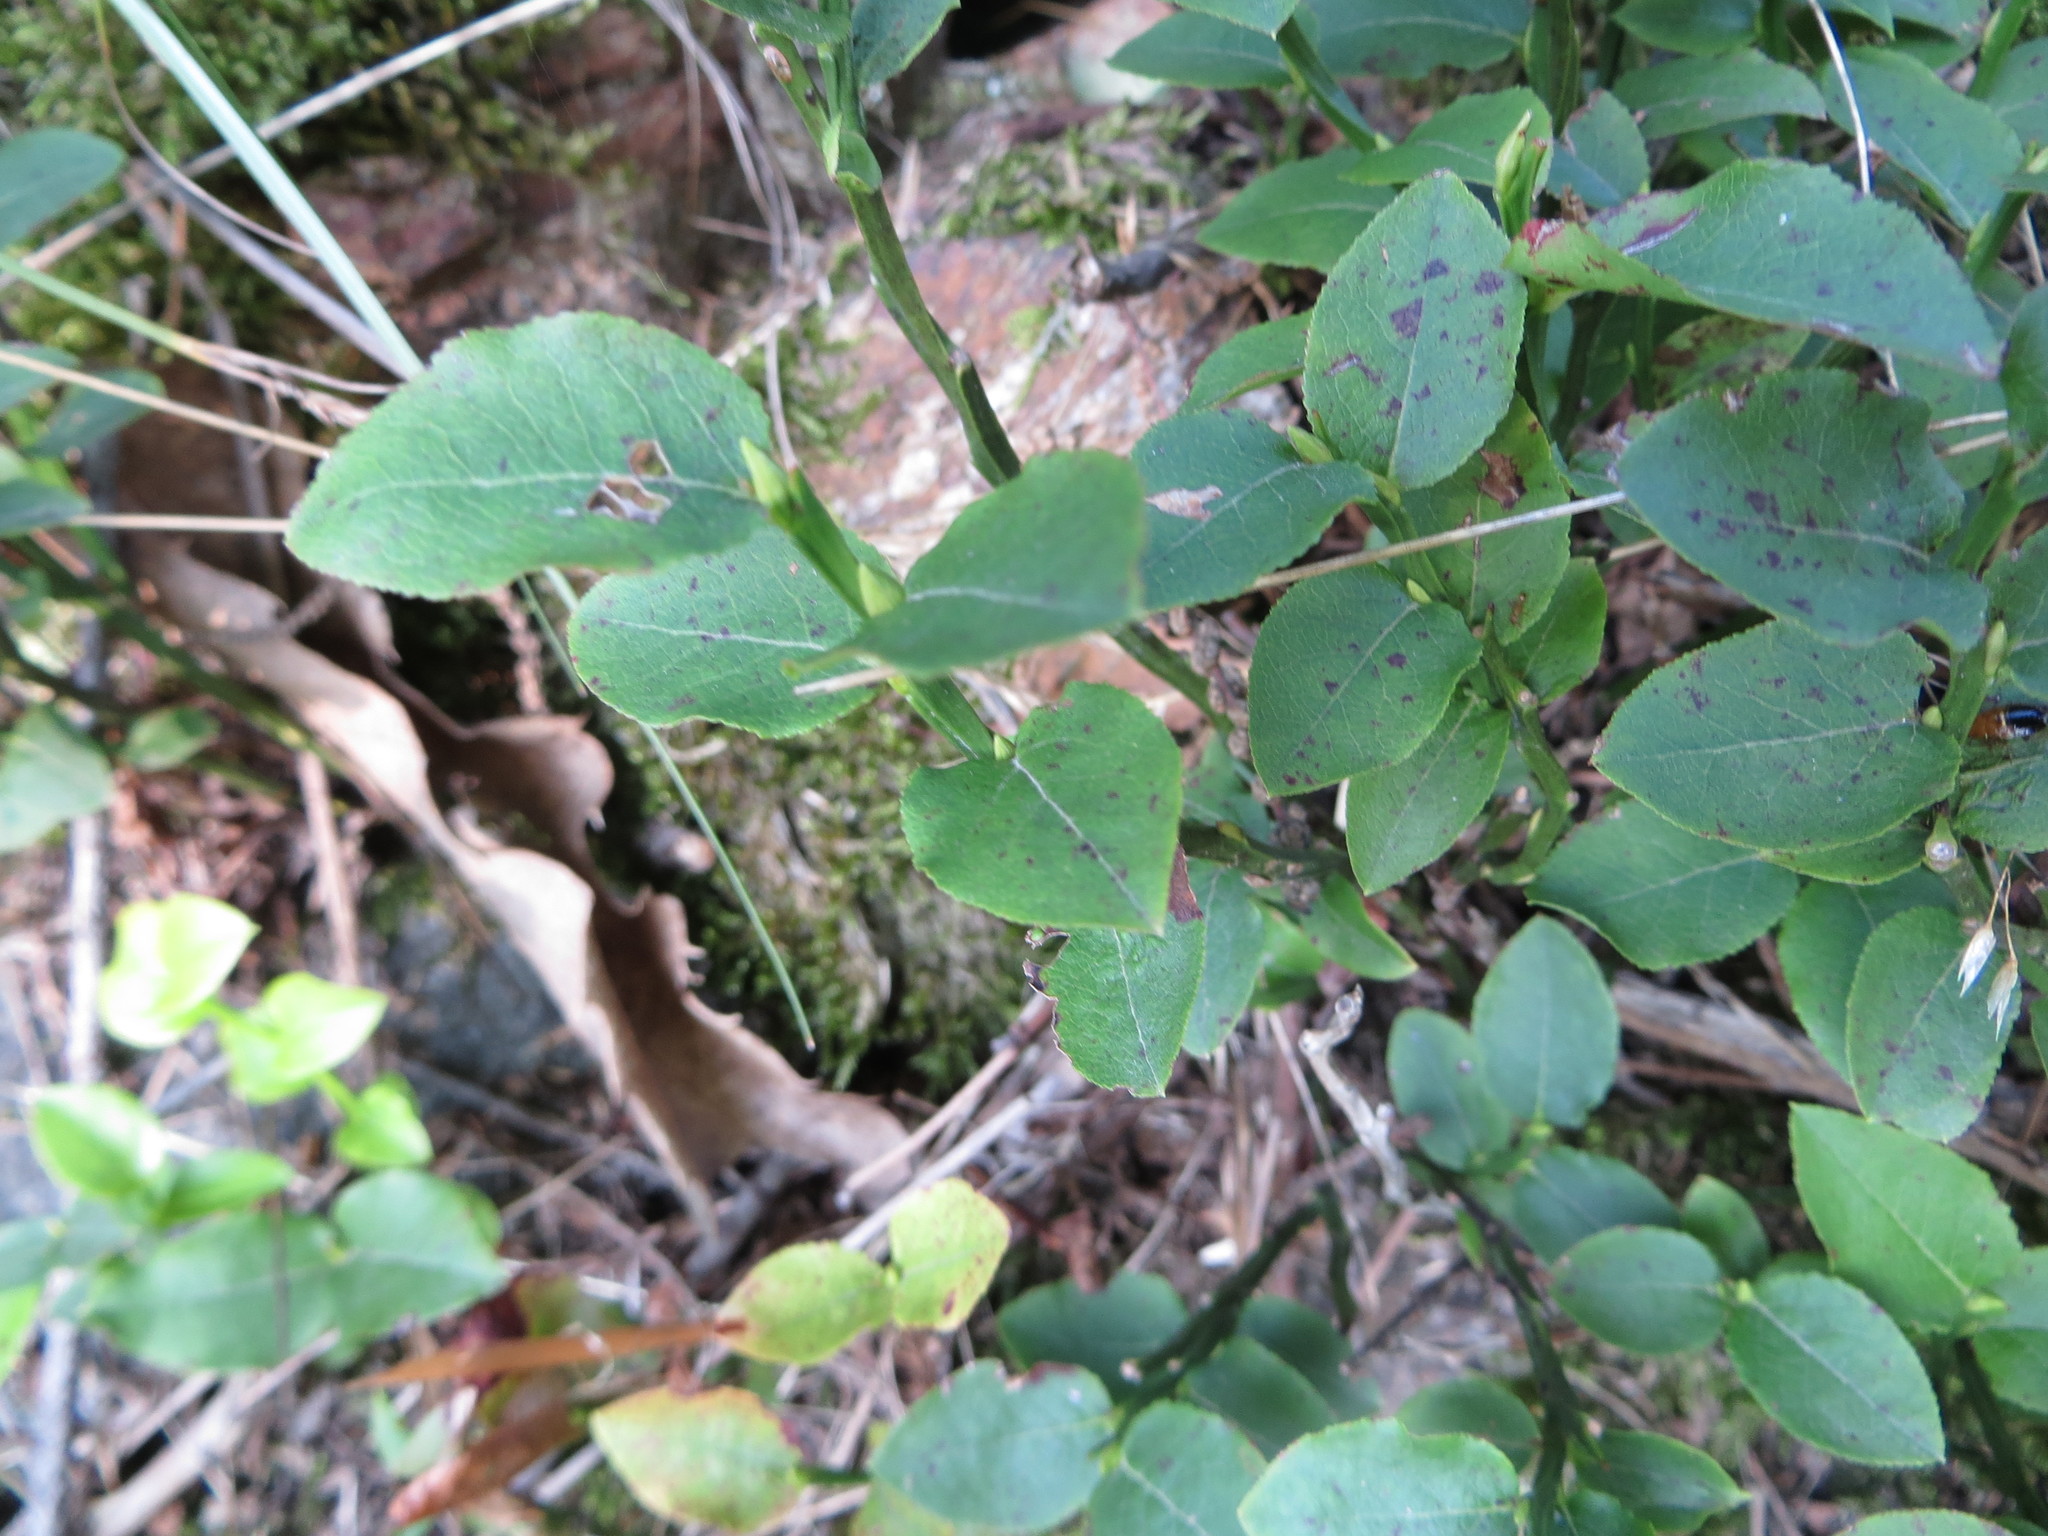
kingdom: Plantae
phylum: Tracheophyta
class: Magnoliopsida
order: Ericales
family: Ericaceae
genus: Vaccinium
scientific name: Vaccinium myrtillus
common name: Bilberry
